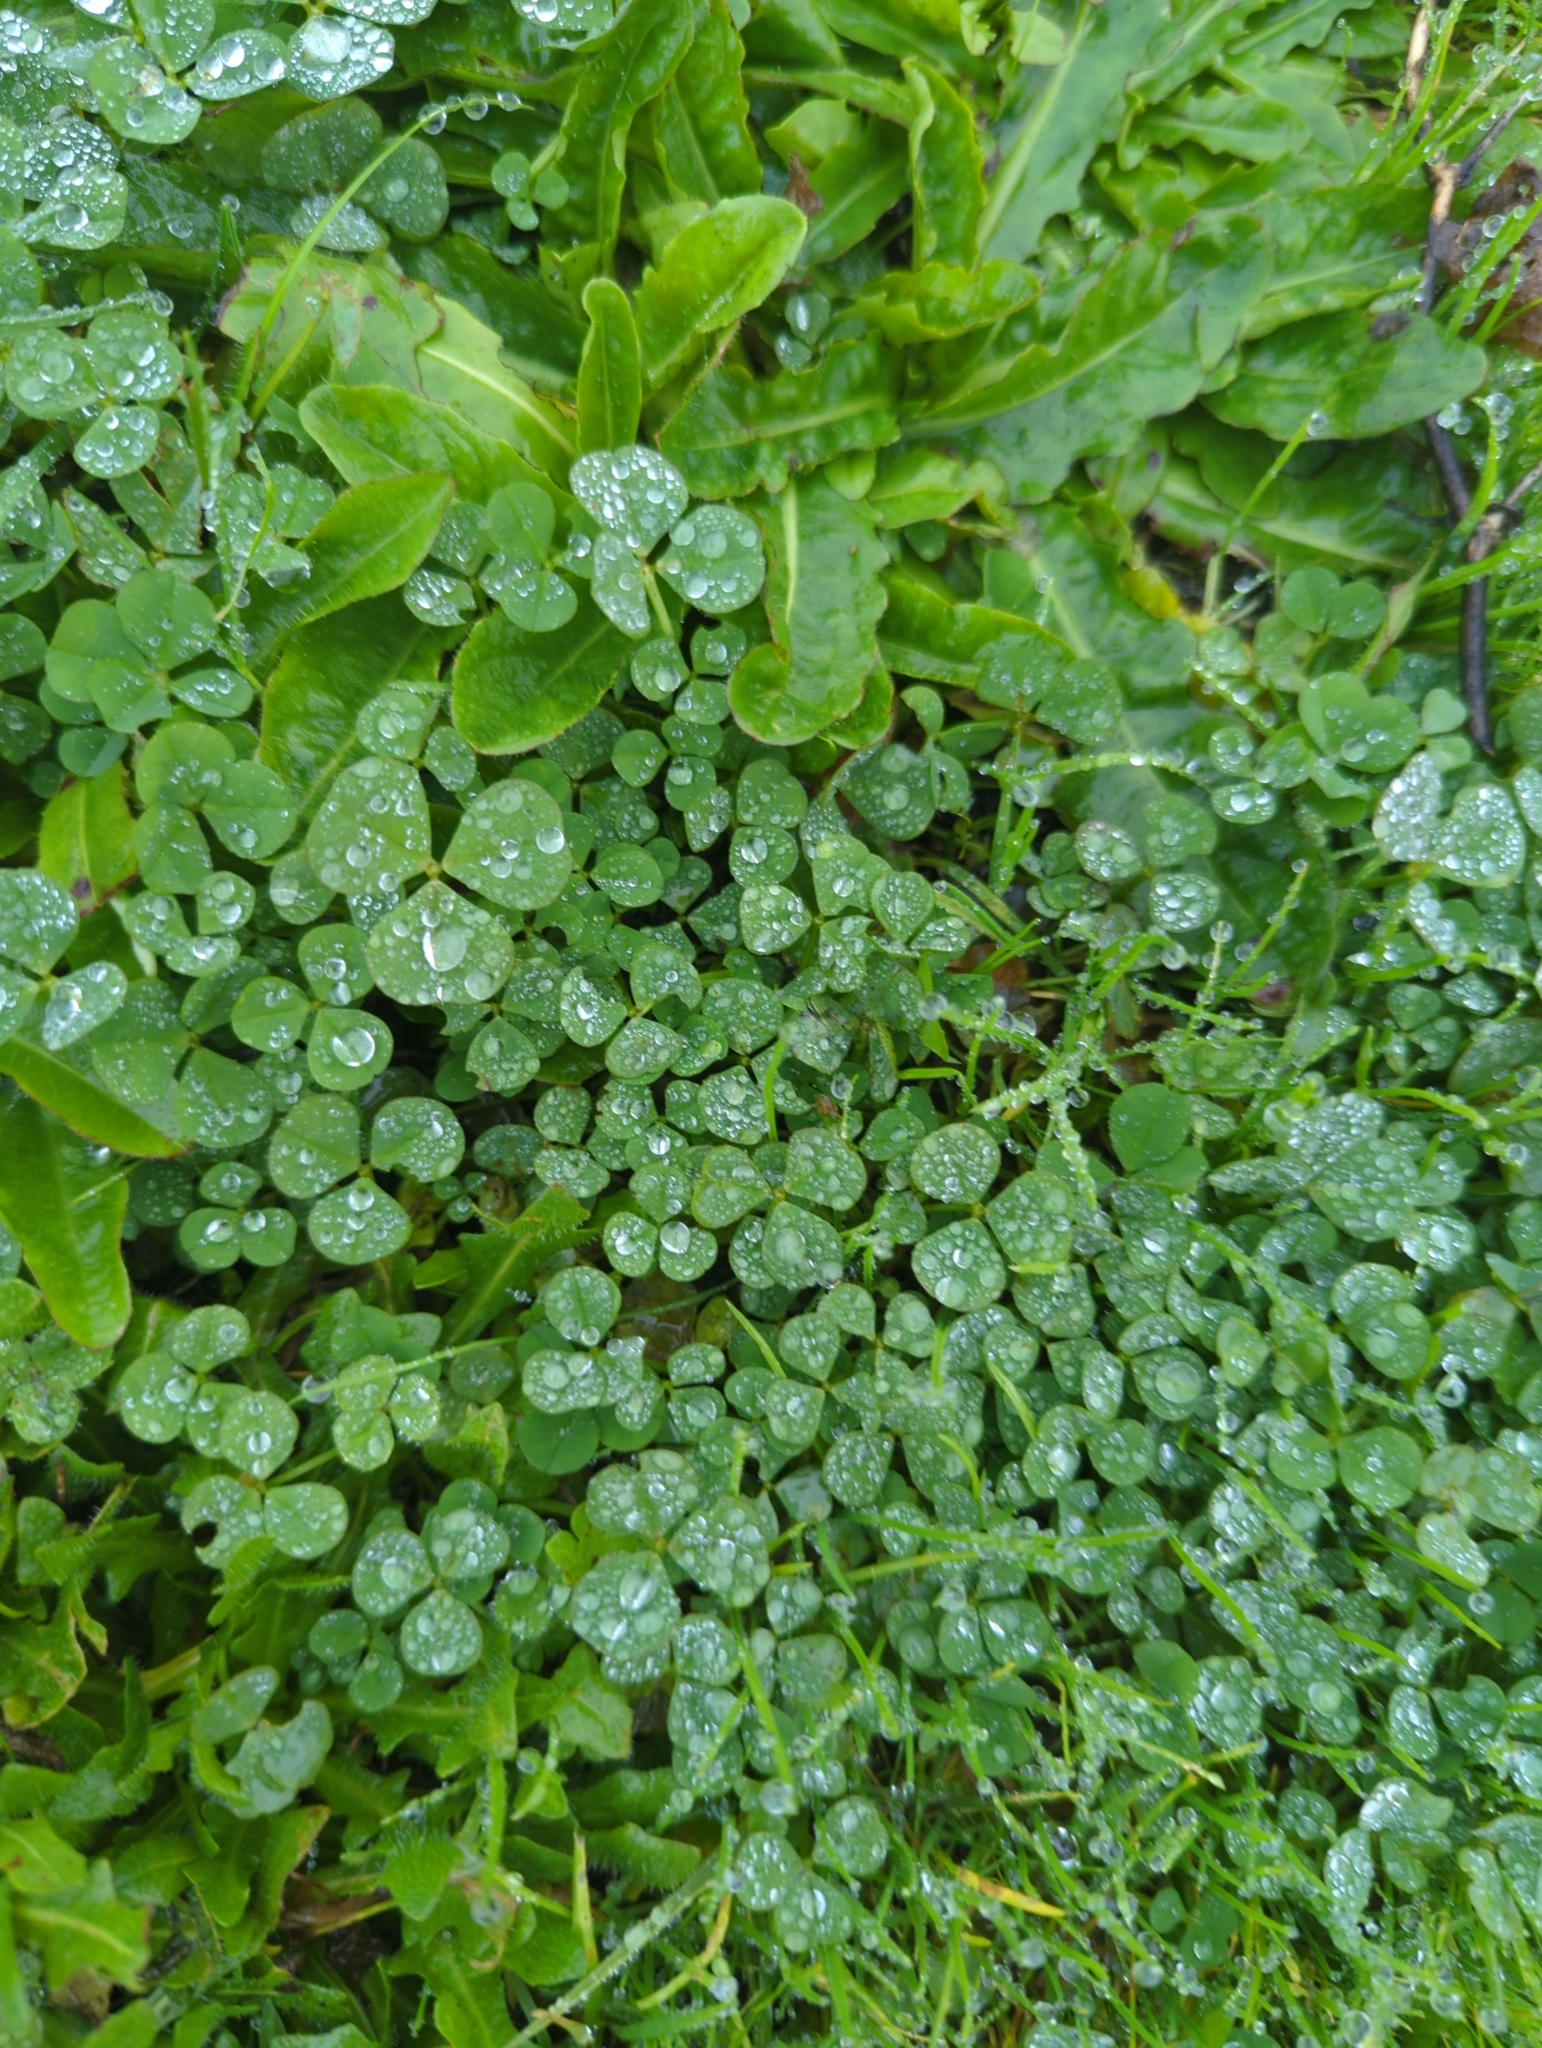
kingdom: Plantae
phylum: Tracheophyta
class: Magnoliopsida
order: Fabales
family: Fabaceae
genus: Trifolium
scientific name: Trifolium repens
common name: White clover
